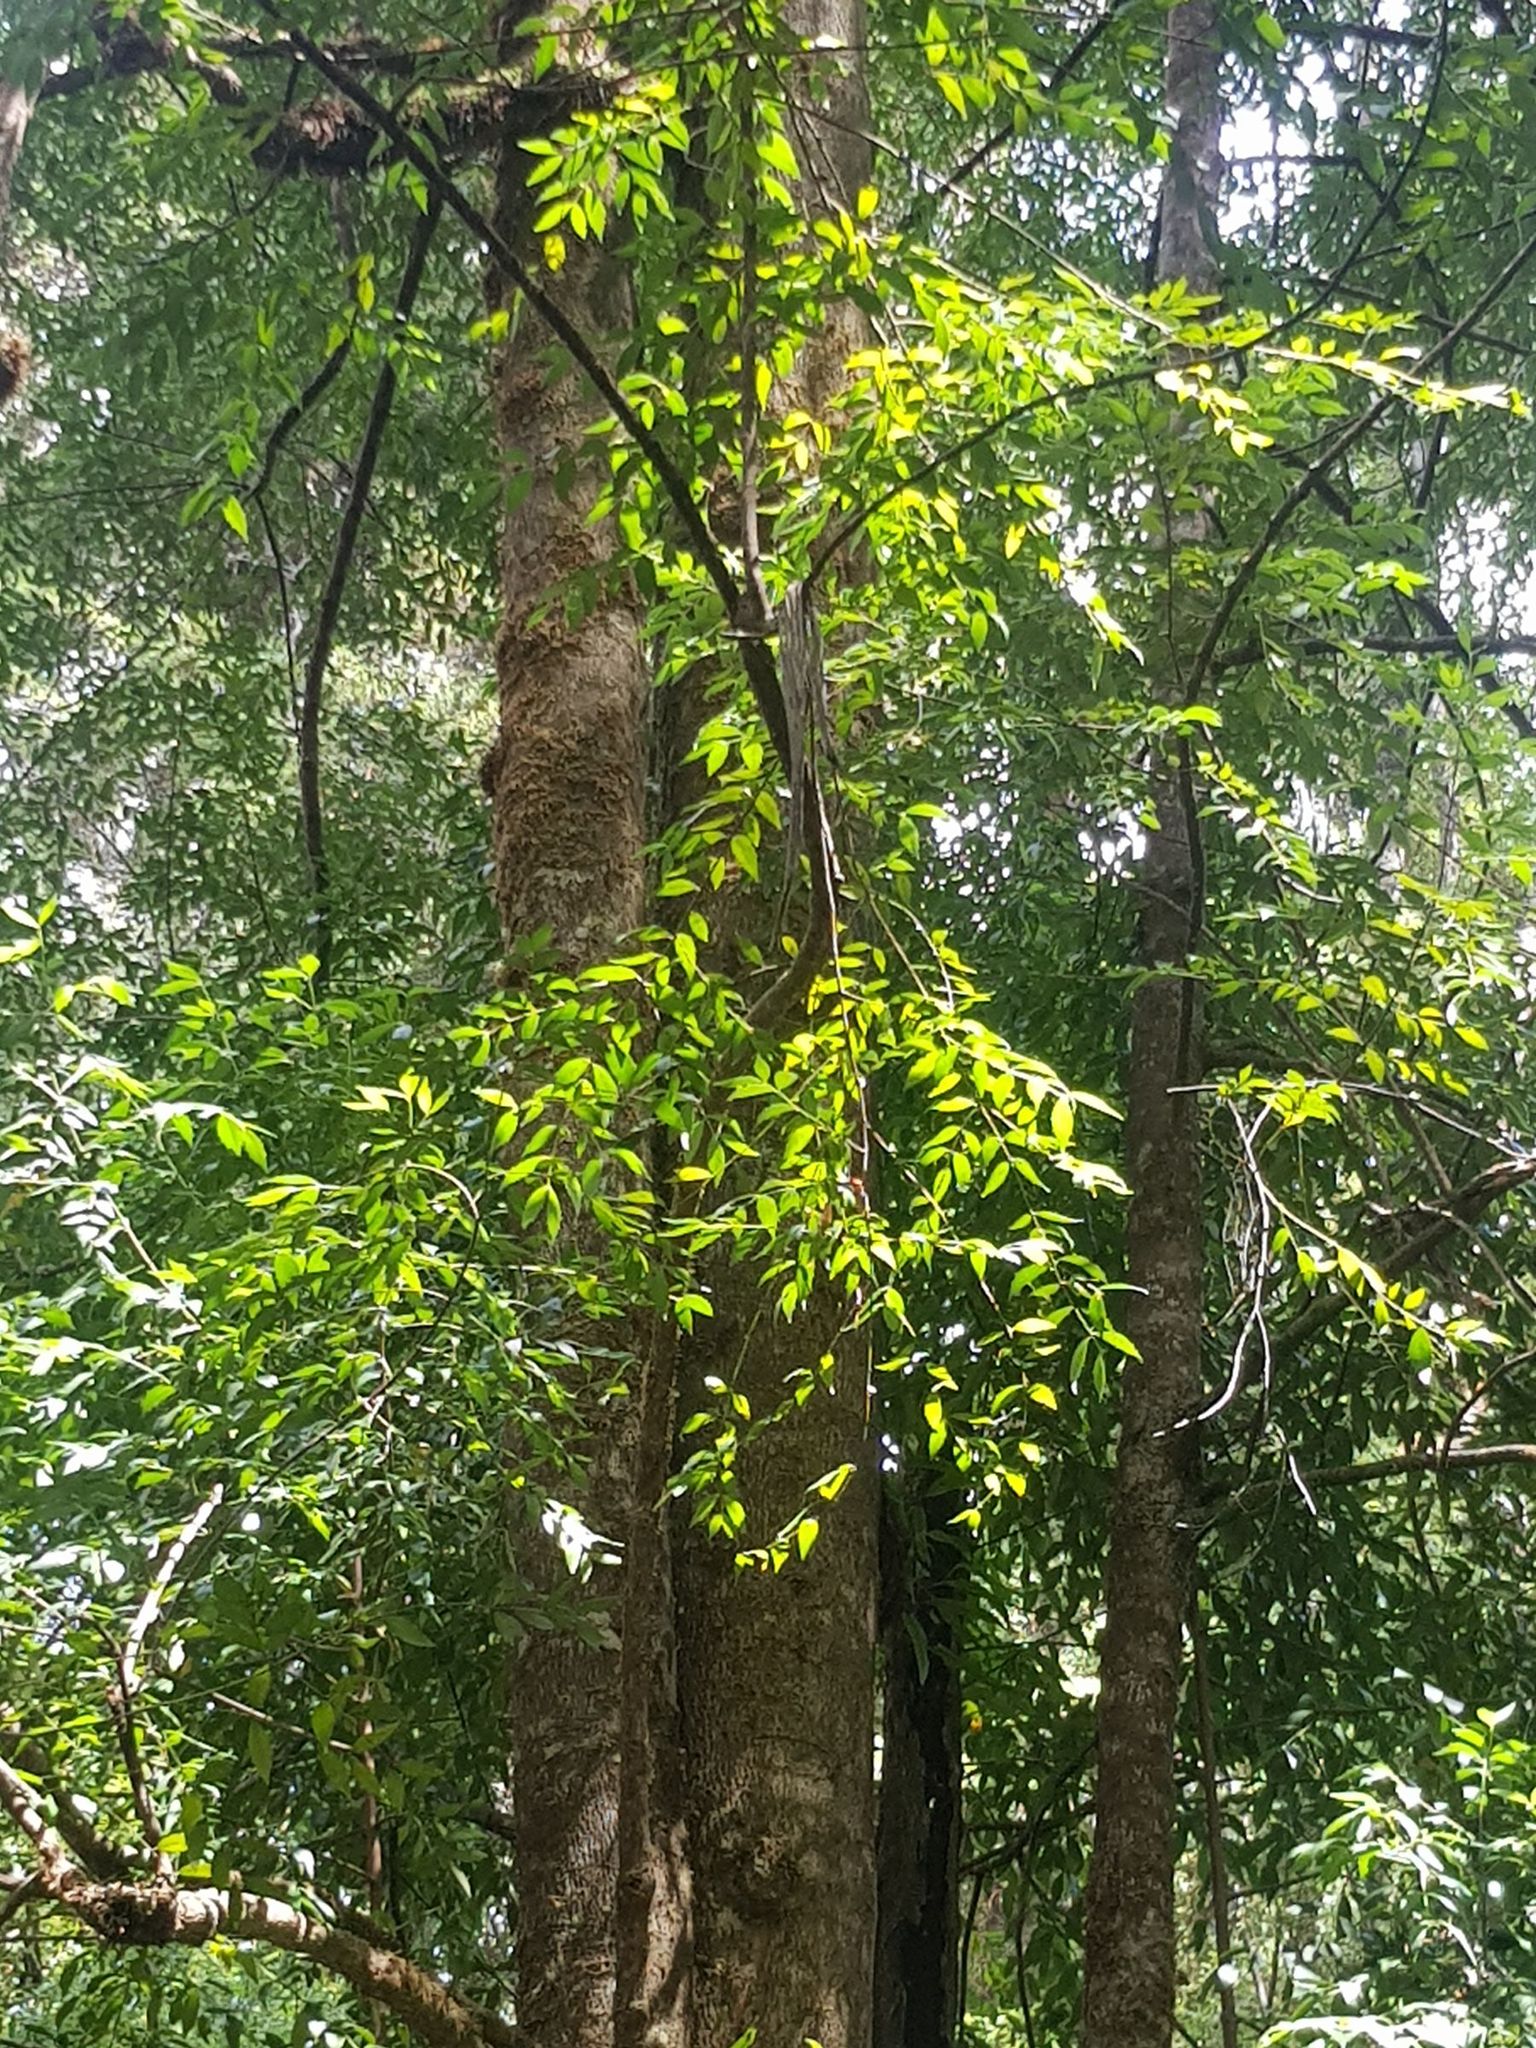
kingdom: Plantae
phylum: Tracheophyta
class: Magnoliopsida
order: Laurales
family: Atherospermataceae
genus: Atherosperma
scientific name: Atherosperma moschatum
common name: Tasmanian-sassafras
